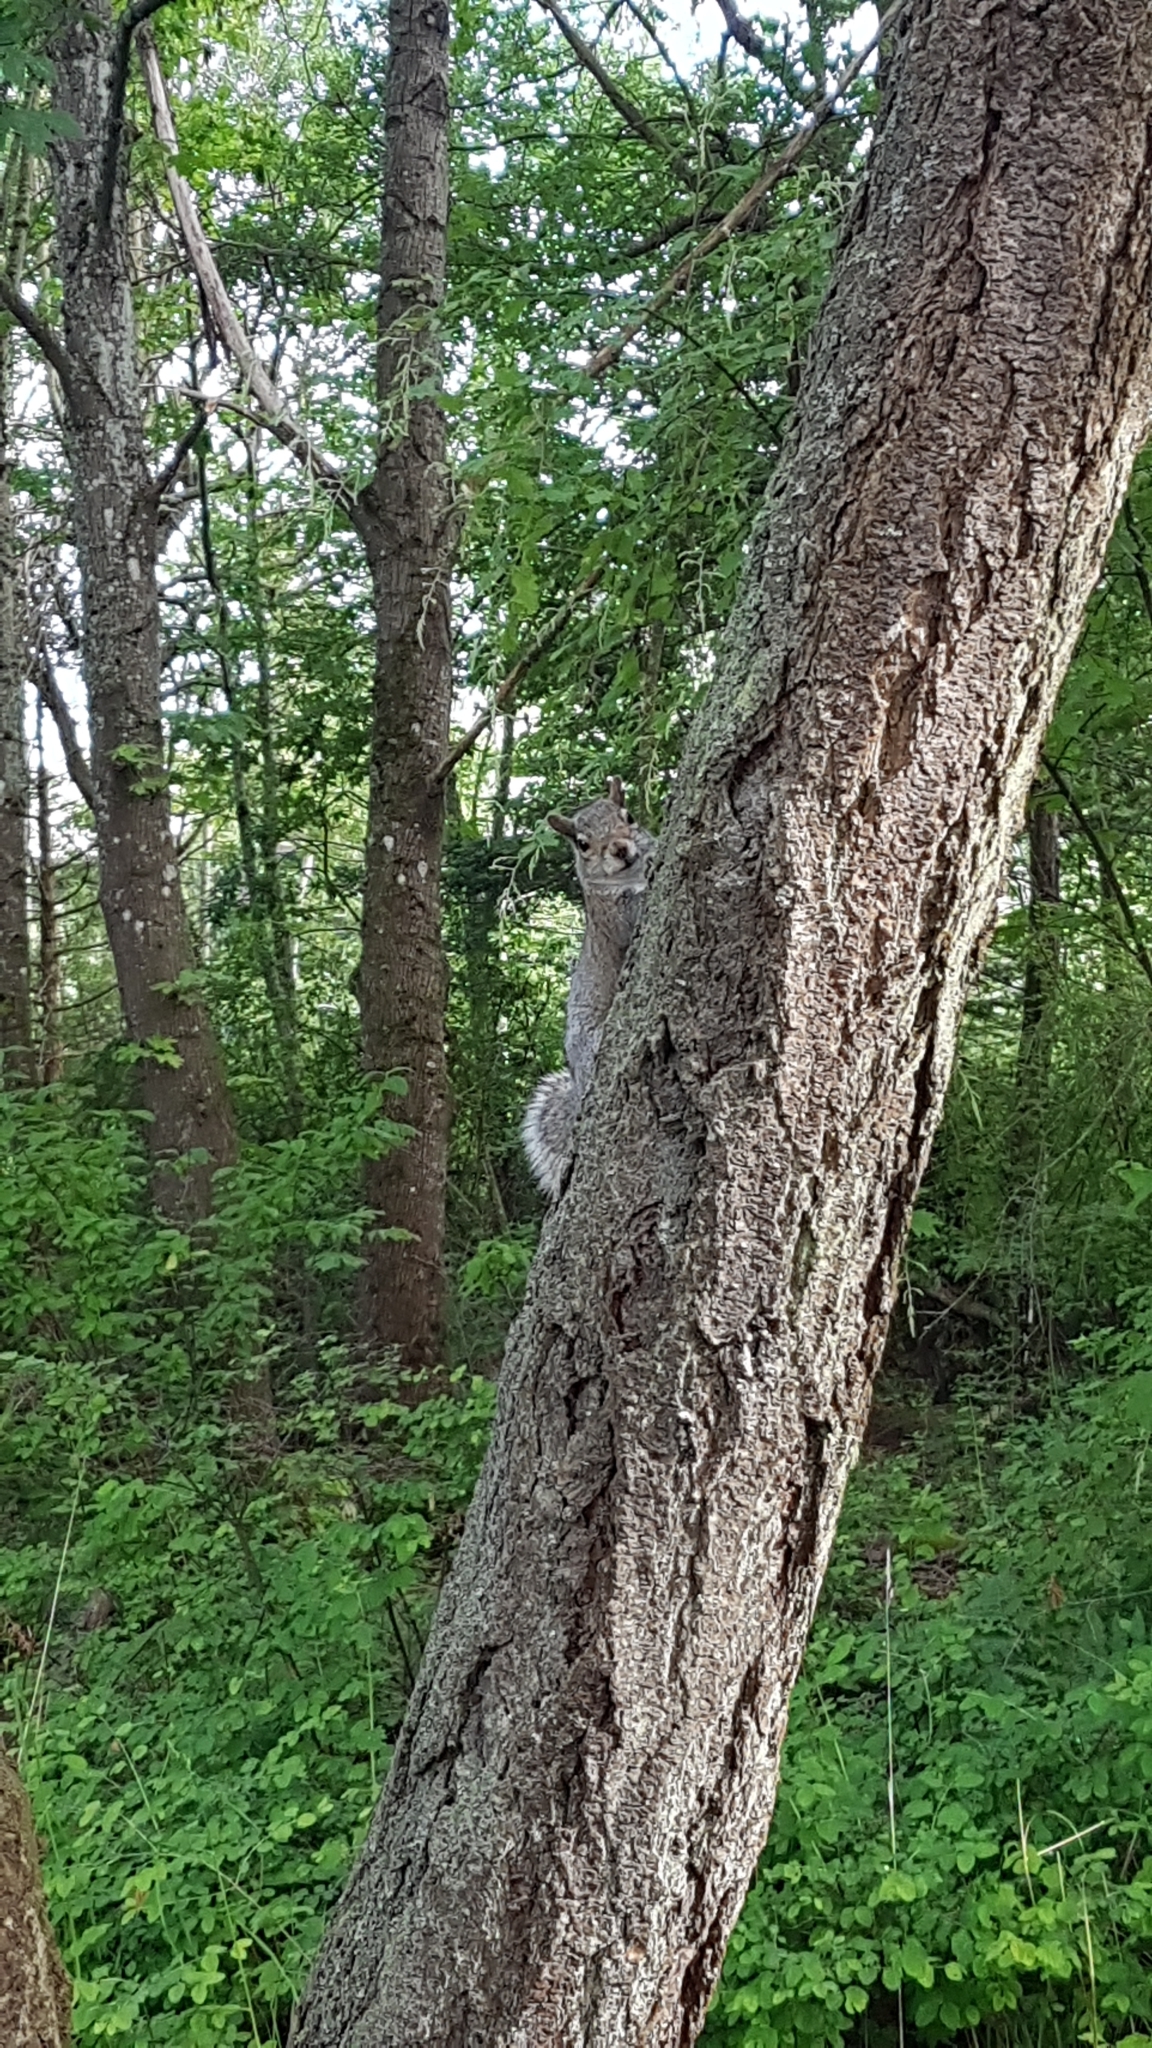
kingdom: Animalia
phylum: Chordata
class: Mammalia
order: Rodentia
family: Sciuridae
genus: Sciurus
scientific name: Sciurus carolinensis
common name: Eastern gray squirrel
